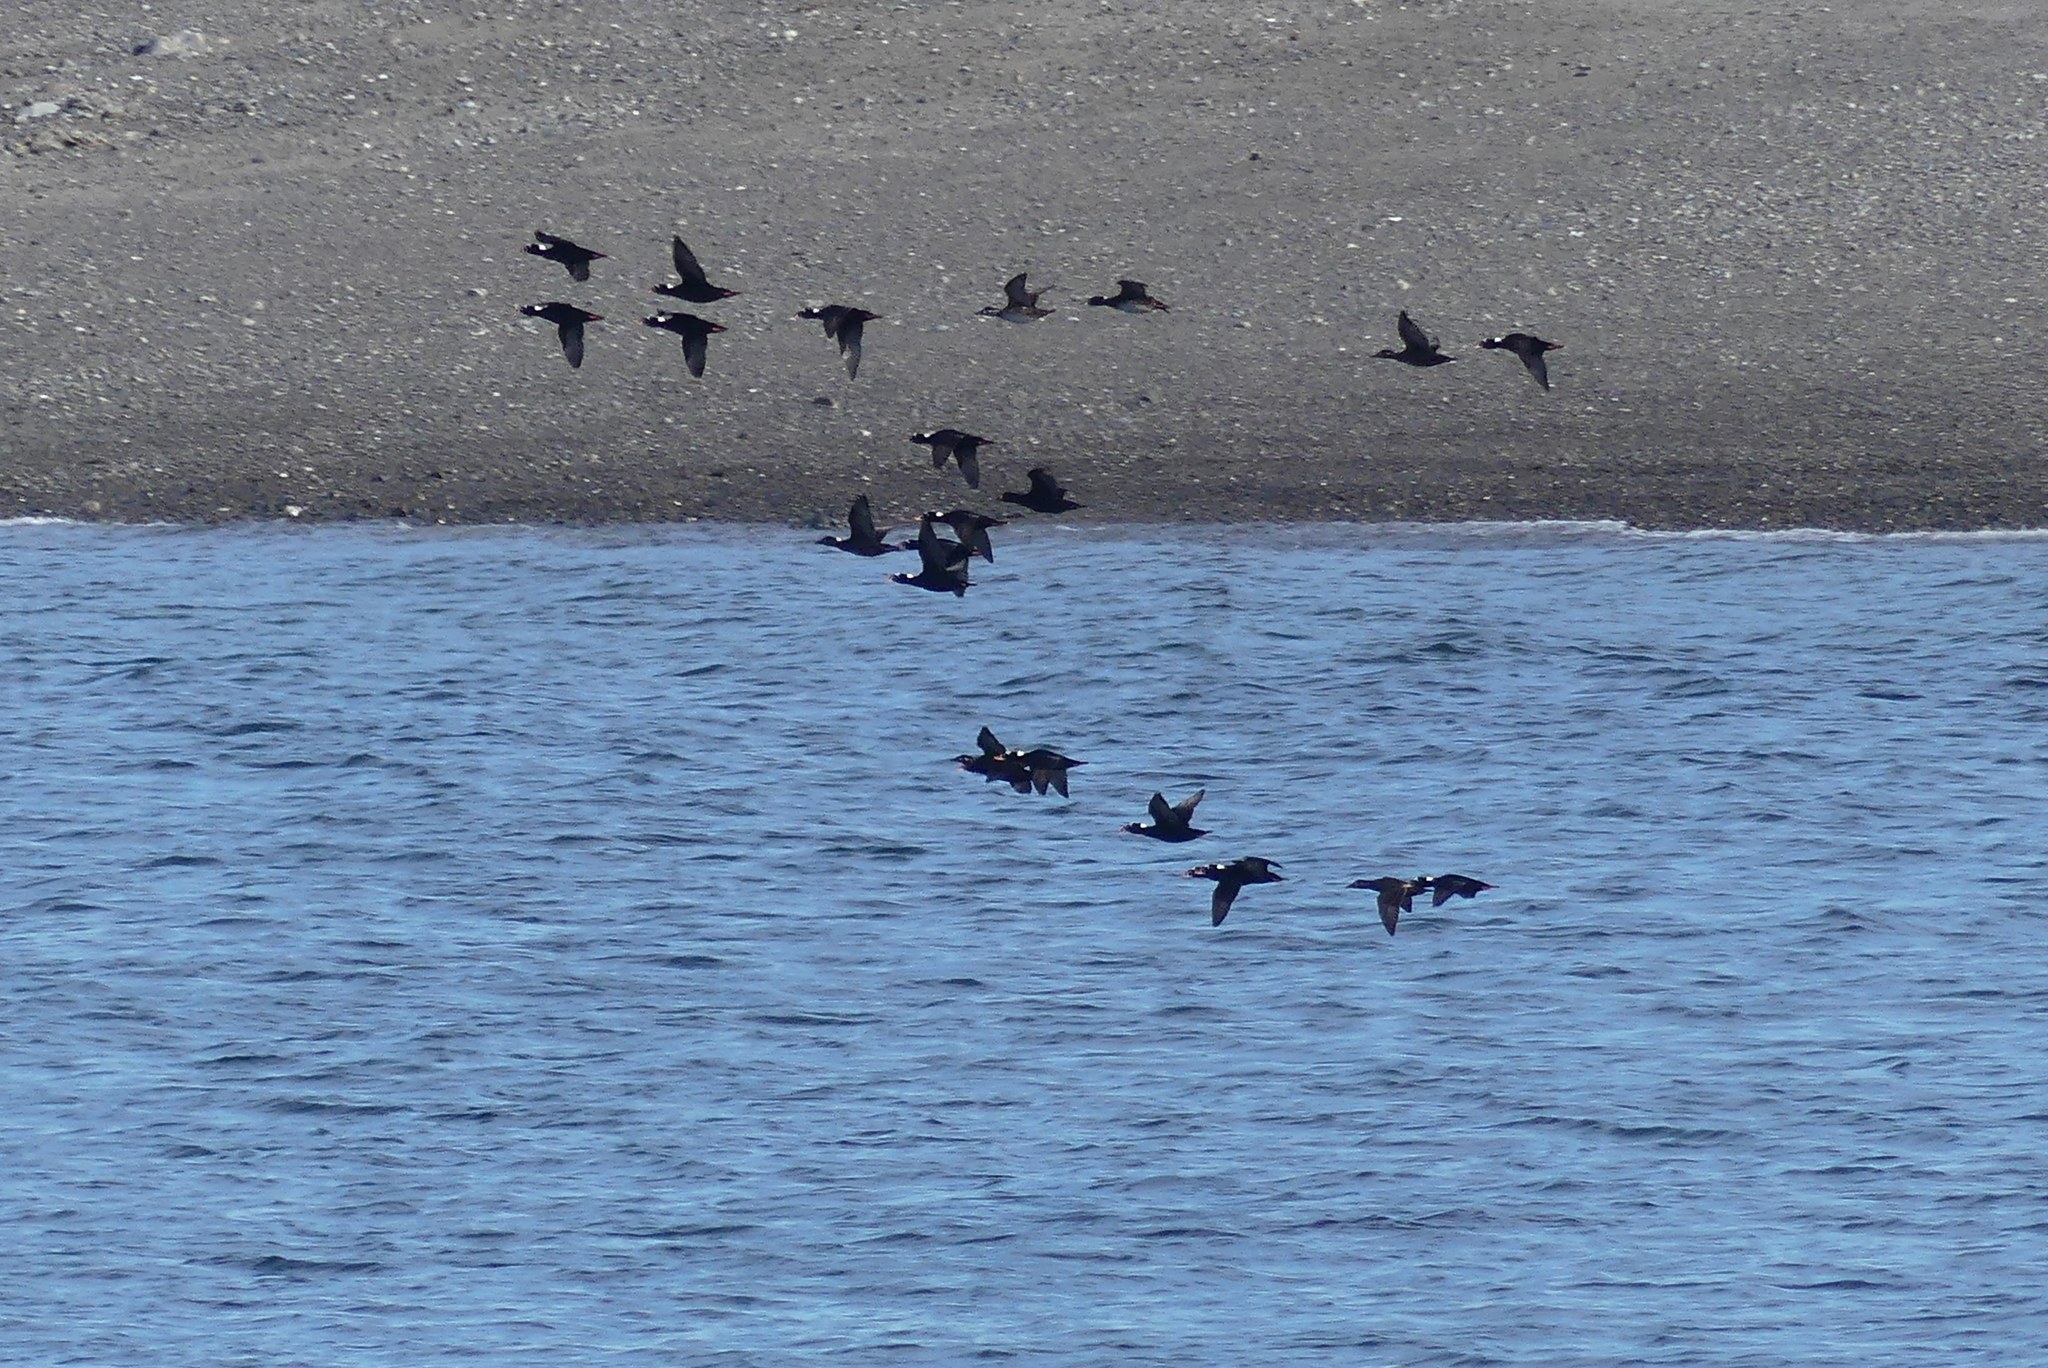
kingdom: Animalia
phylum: Chordata
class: Aves
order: Anseriformes
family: Anatidae
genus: Melanitta
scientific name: Melanitta perspicillata
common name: Surf scoter
